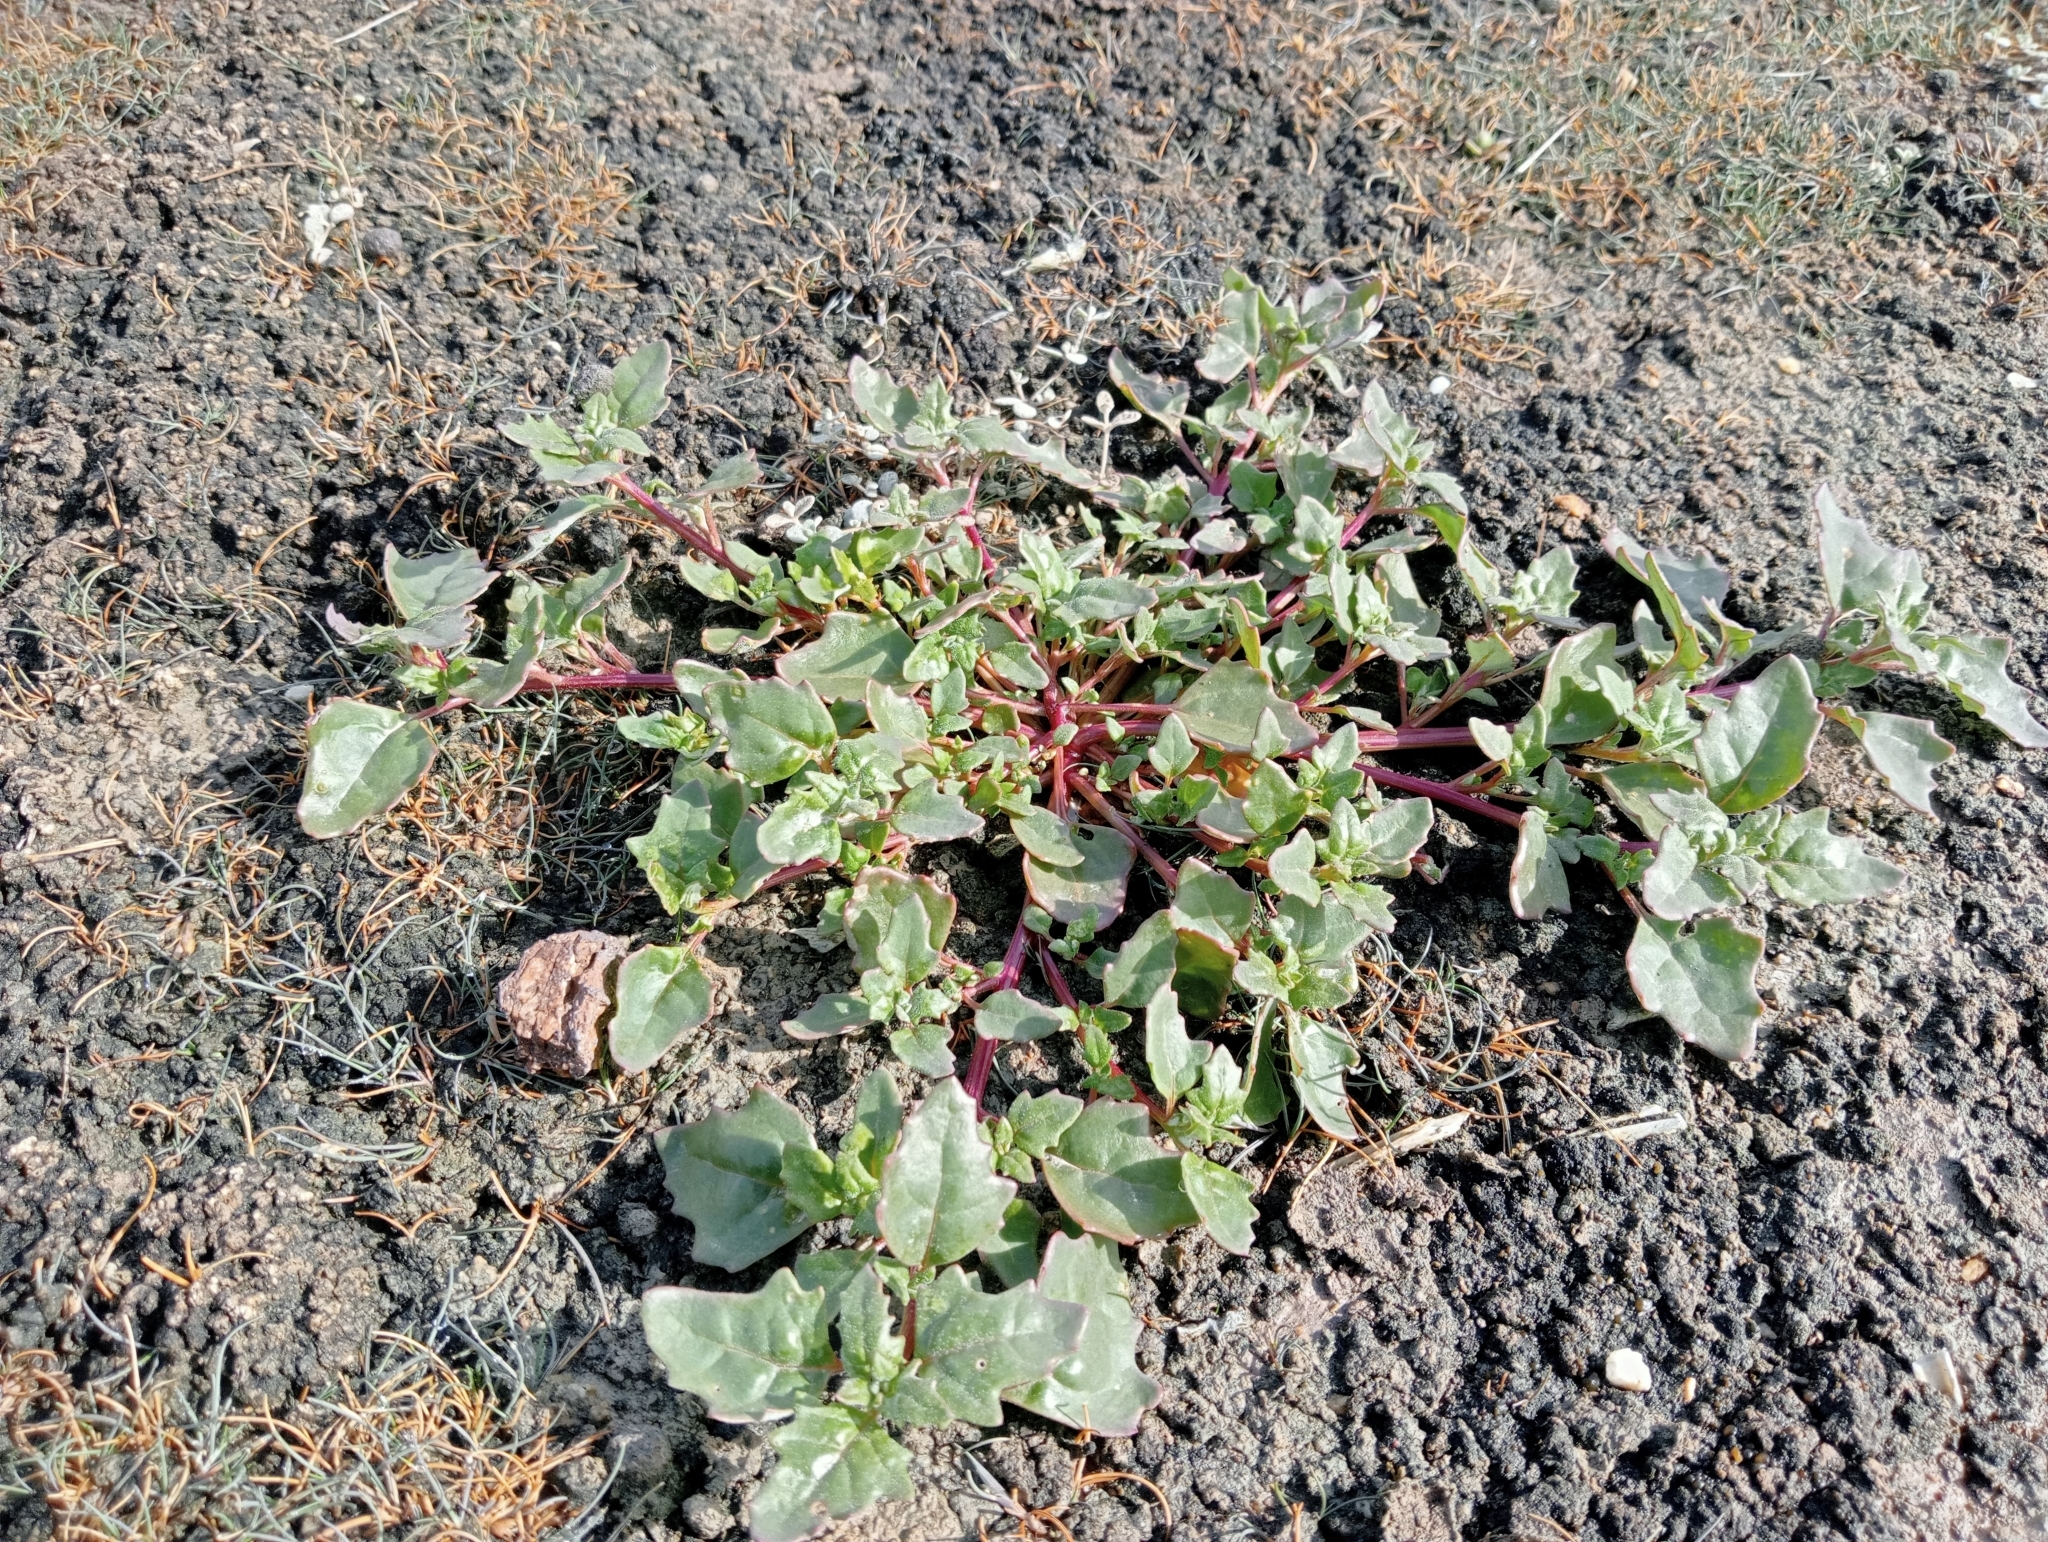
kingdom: Plantae
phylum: Tracheophyta
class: Magnoliopsida
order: Caryophyllales
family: Amaranthaceae
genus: Oxybasis
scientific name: Oxybasis ambigua
